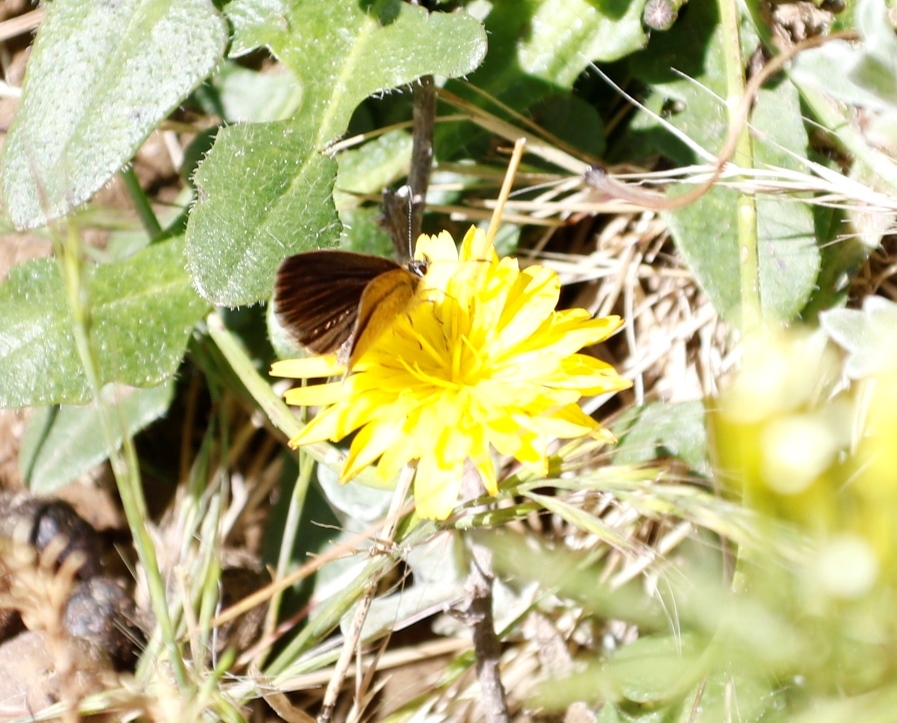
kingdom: Animalia
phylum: Arthropoda
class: Insecta
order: Lepidoptera
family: Lycaenidae
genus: Harpendyreus
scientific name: Harpendyreus tsomo
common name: Tsomo mountain blue
